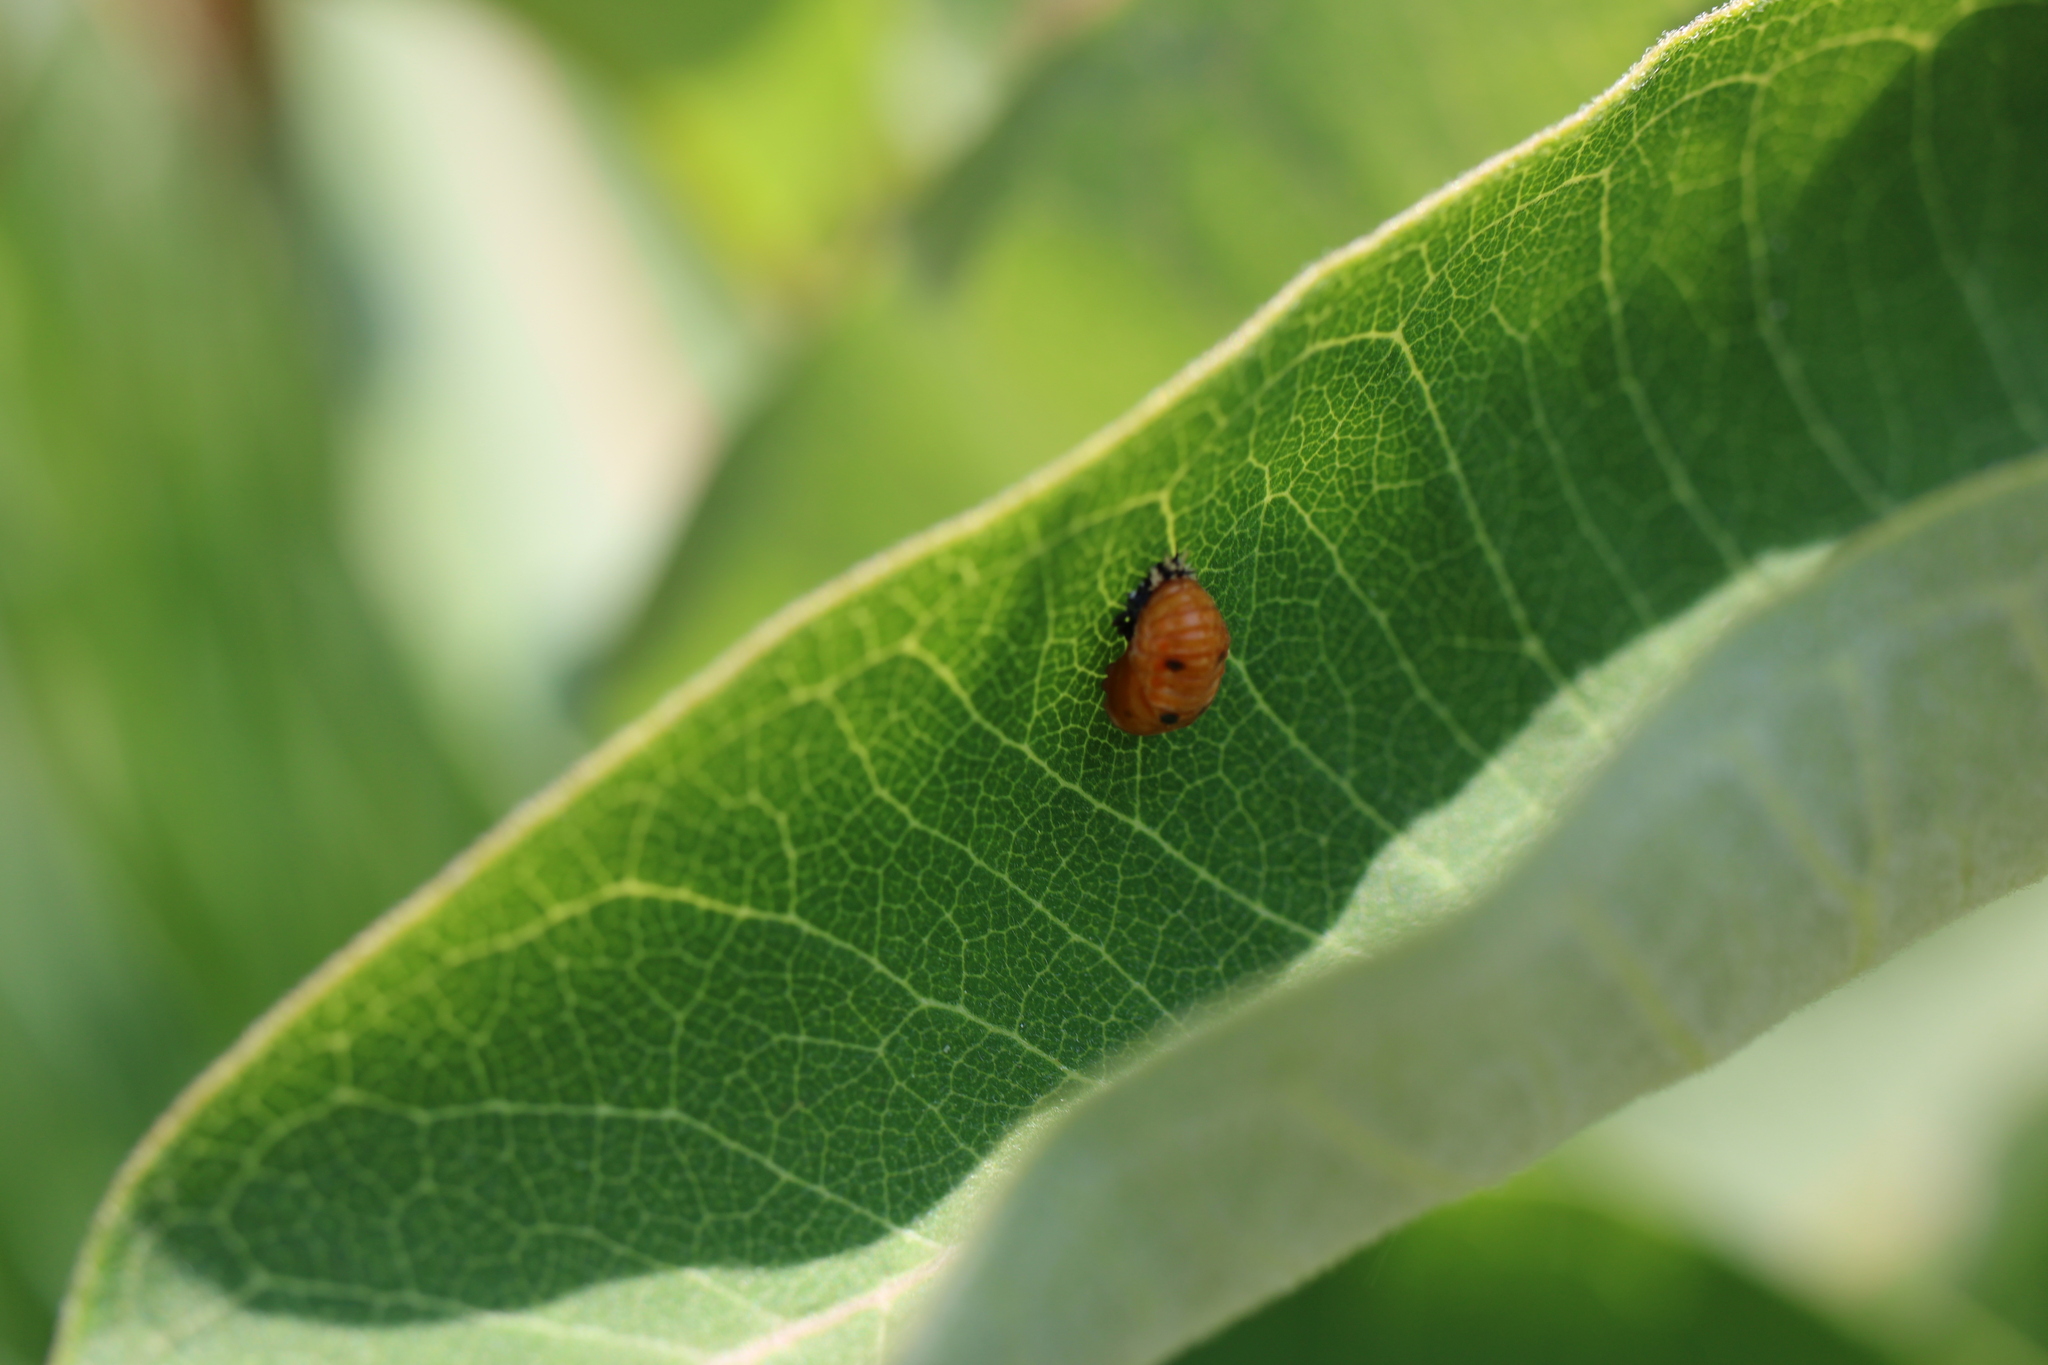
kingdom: Animalia
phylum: Arthropoda
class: Insecta
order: Coleoptera
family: Coccinellidae
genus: Harmonia
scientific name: Harmonia axyridis
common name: Harlequin ladybird
